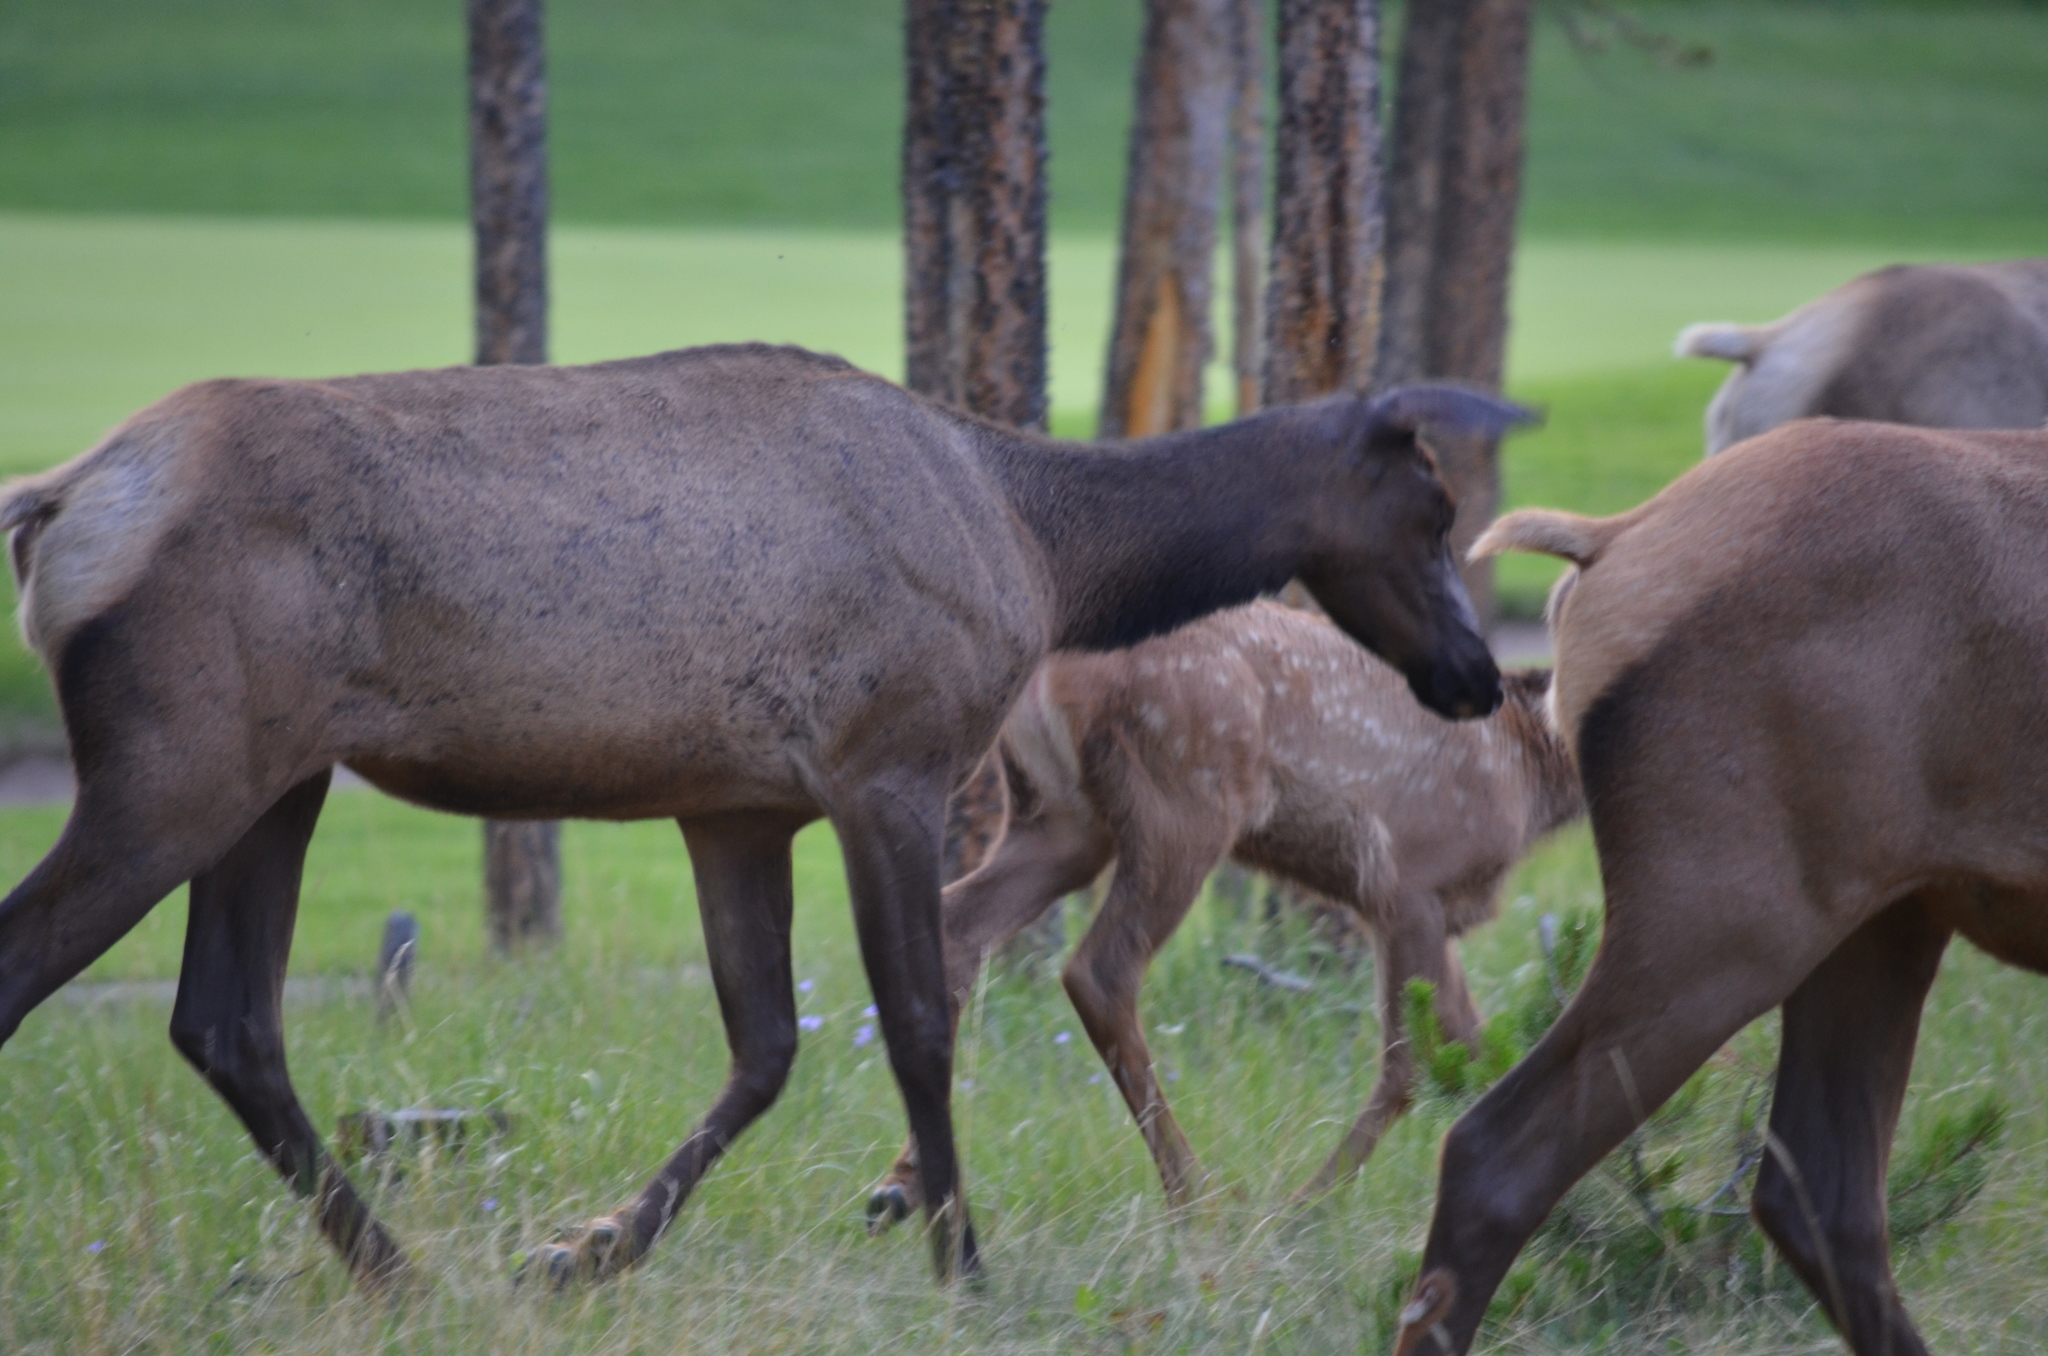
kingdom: Animalia
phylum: Chordata
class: Mammalia
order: Artiodactyla
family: Cervidae
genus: Cervus
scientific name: Cervus elaphus
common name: Red deer
